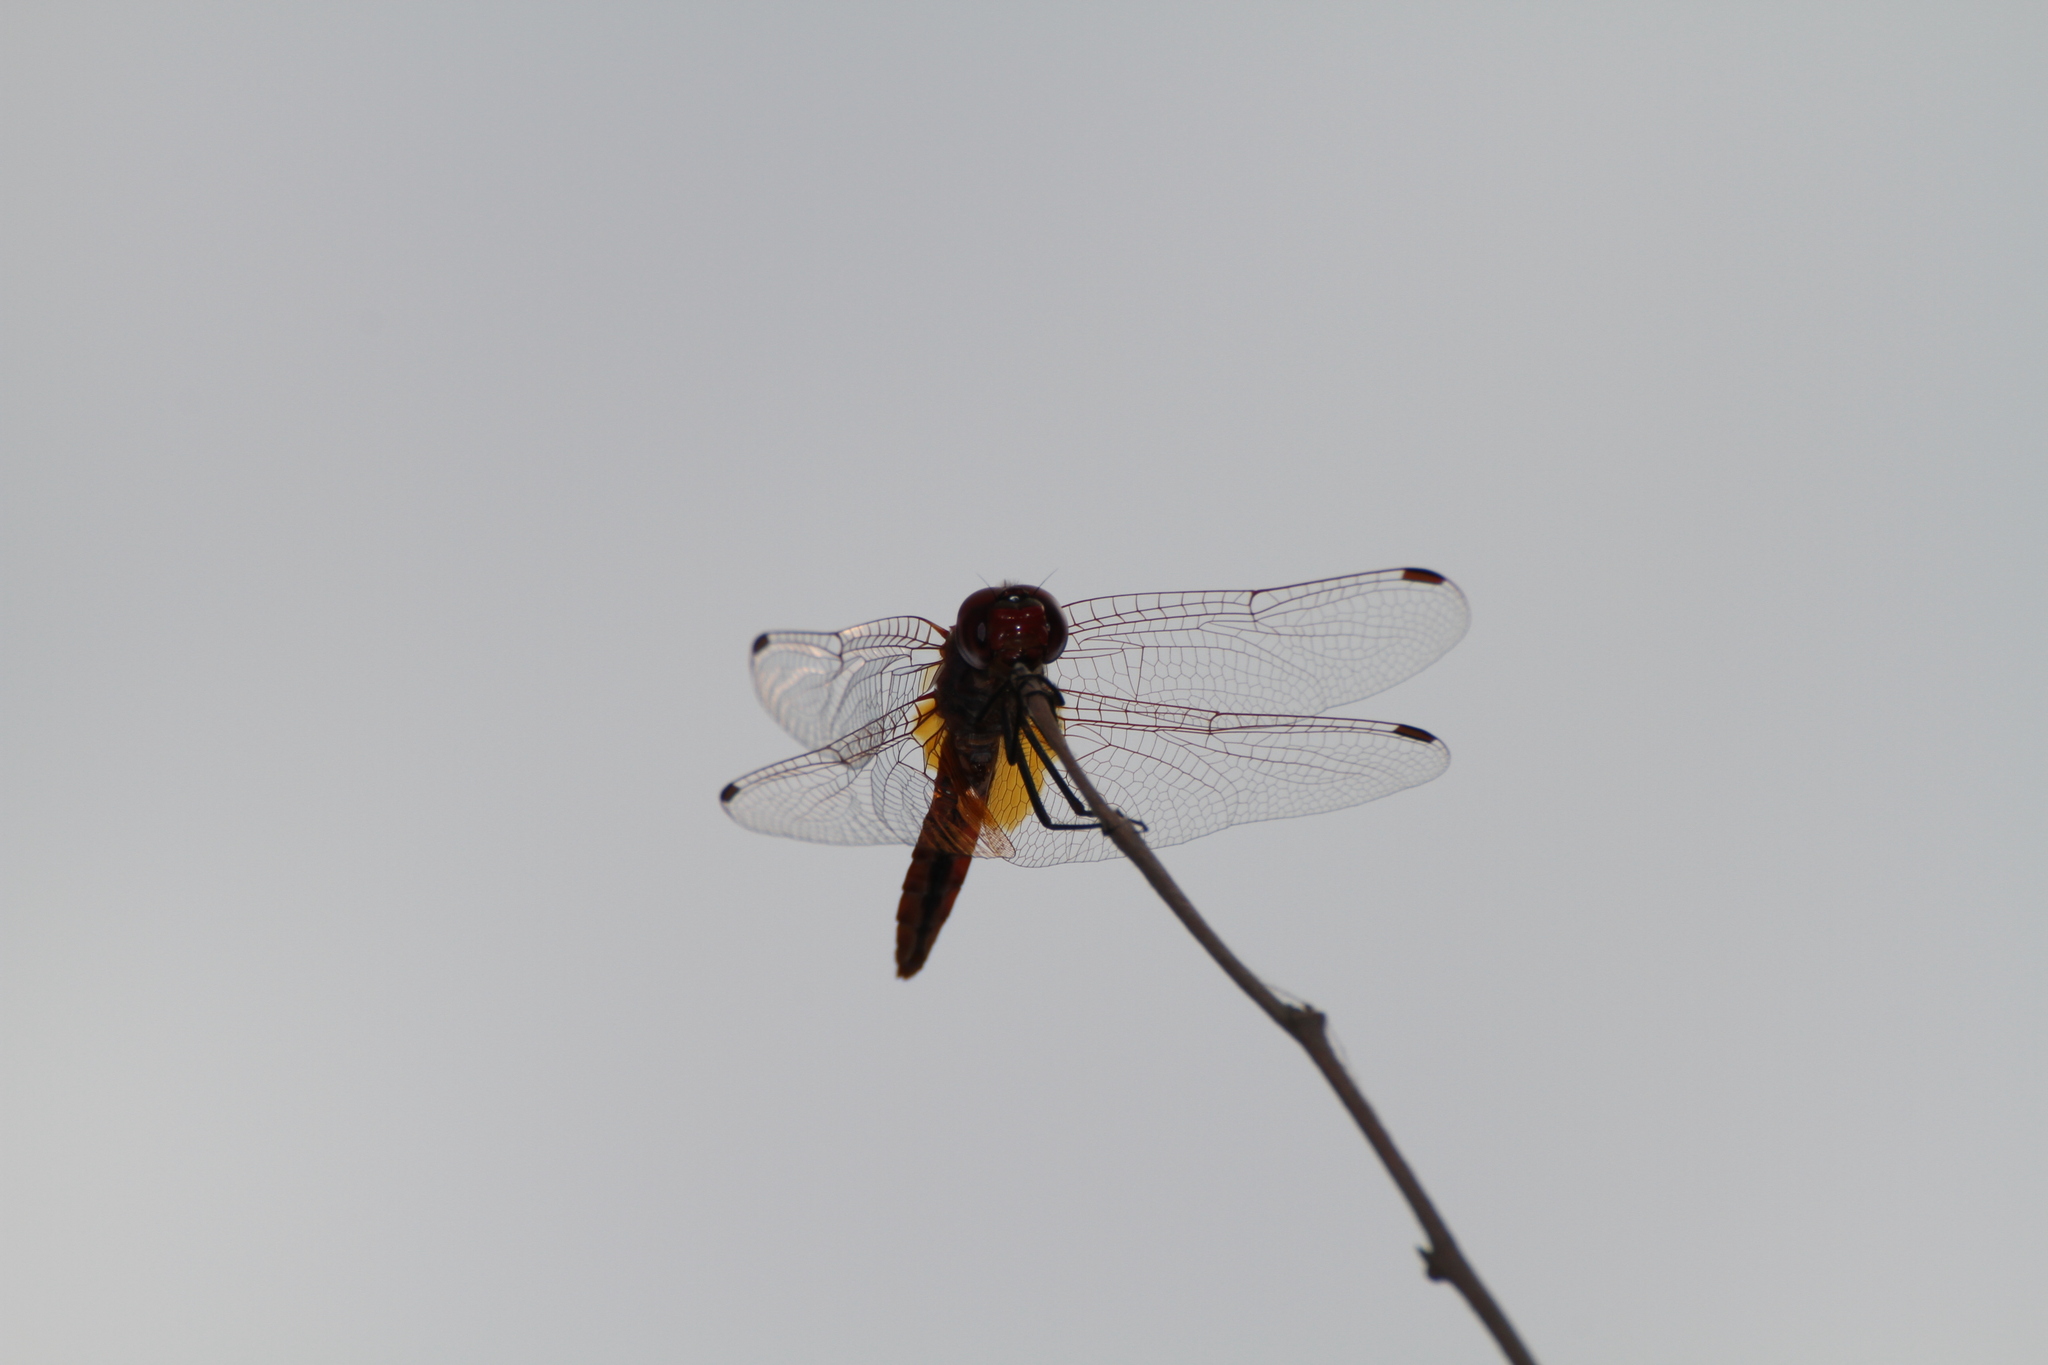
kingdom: Animalia
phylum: Arthropoda
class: Insecta
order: Odonata
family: Libellulidae
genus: Trithemis
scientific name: Trithemis annulata
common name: Violet dropwing
